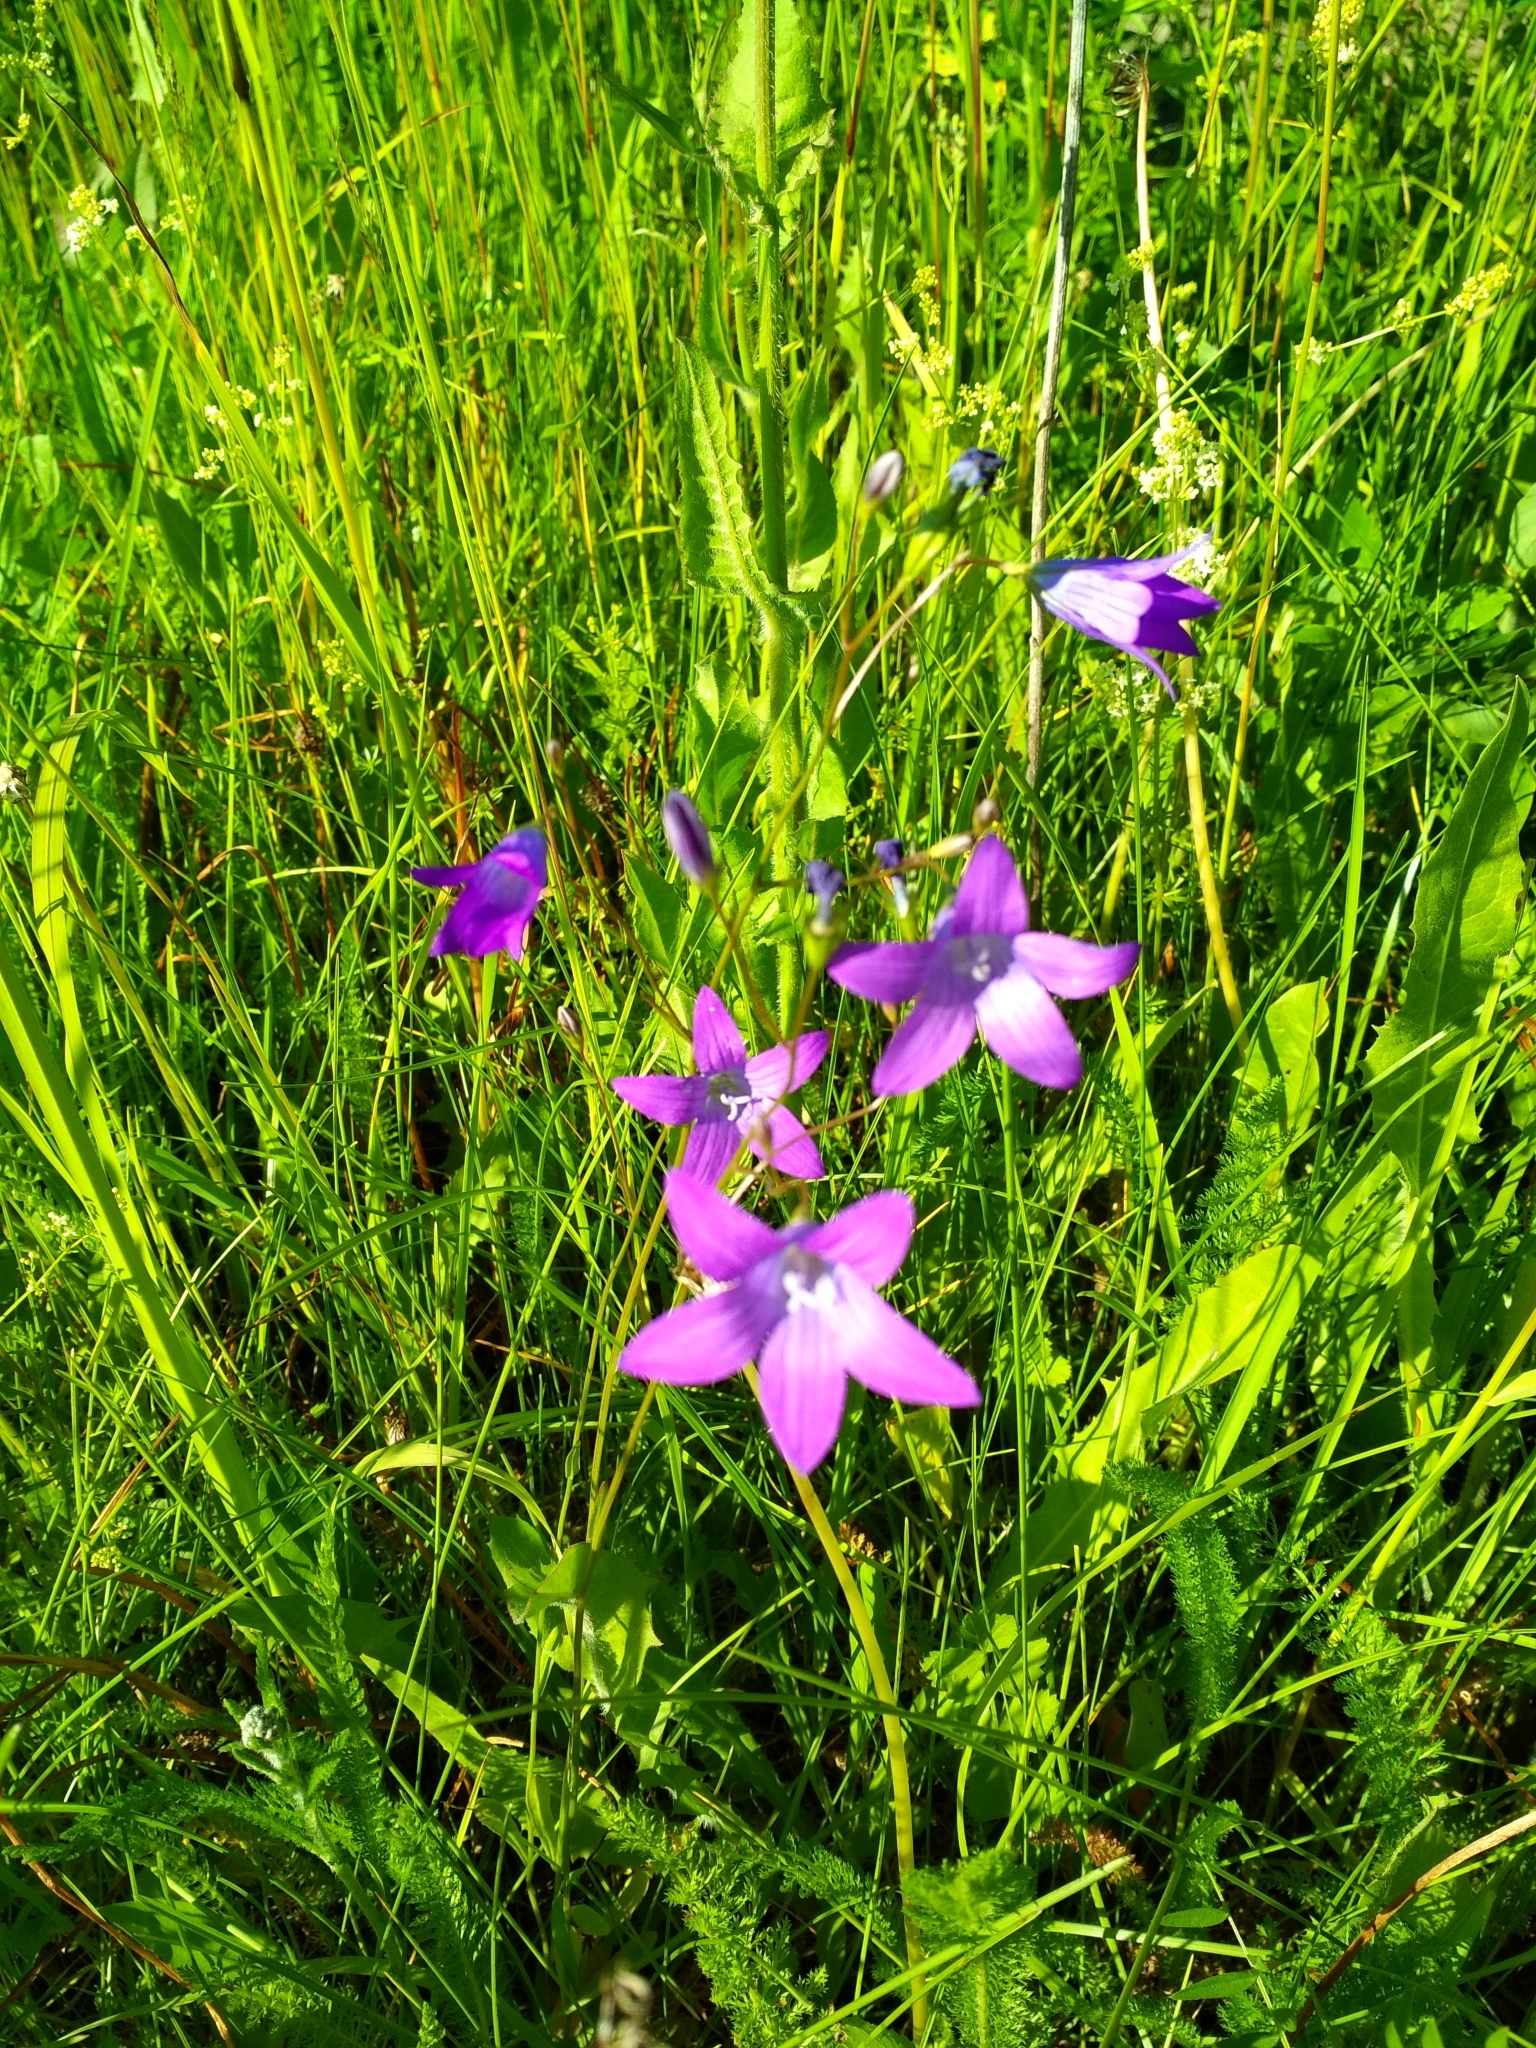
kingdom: Plantae
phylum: Tracheophyta
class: Magnoliopsida
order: Asterales
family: Campanulaceae
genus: Campanula
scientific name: Campanula patula
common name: Spreading bellflower
